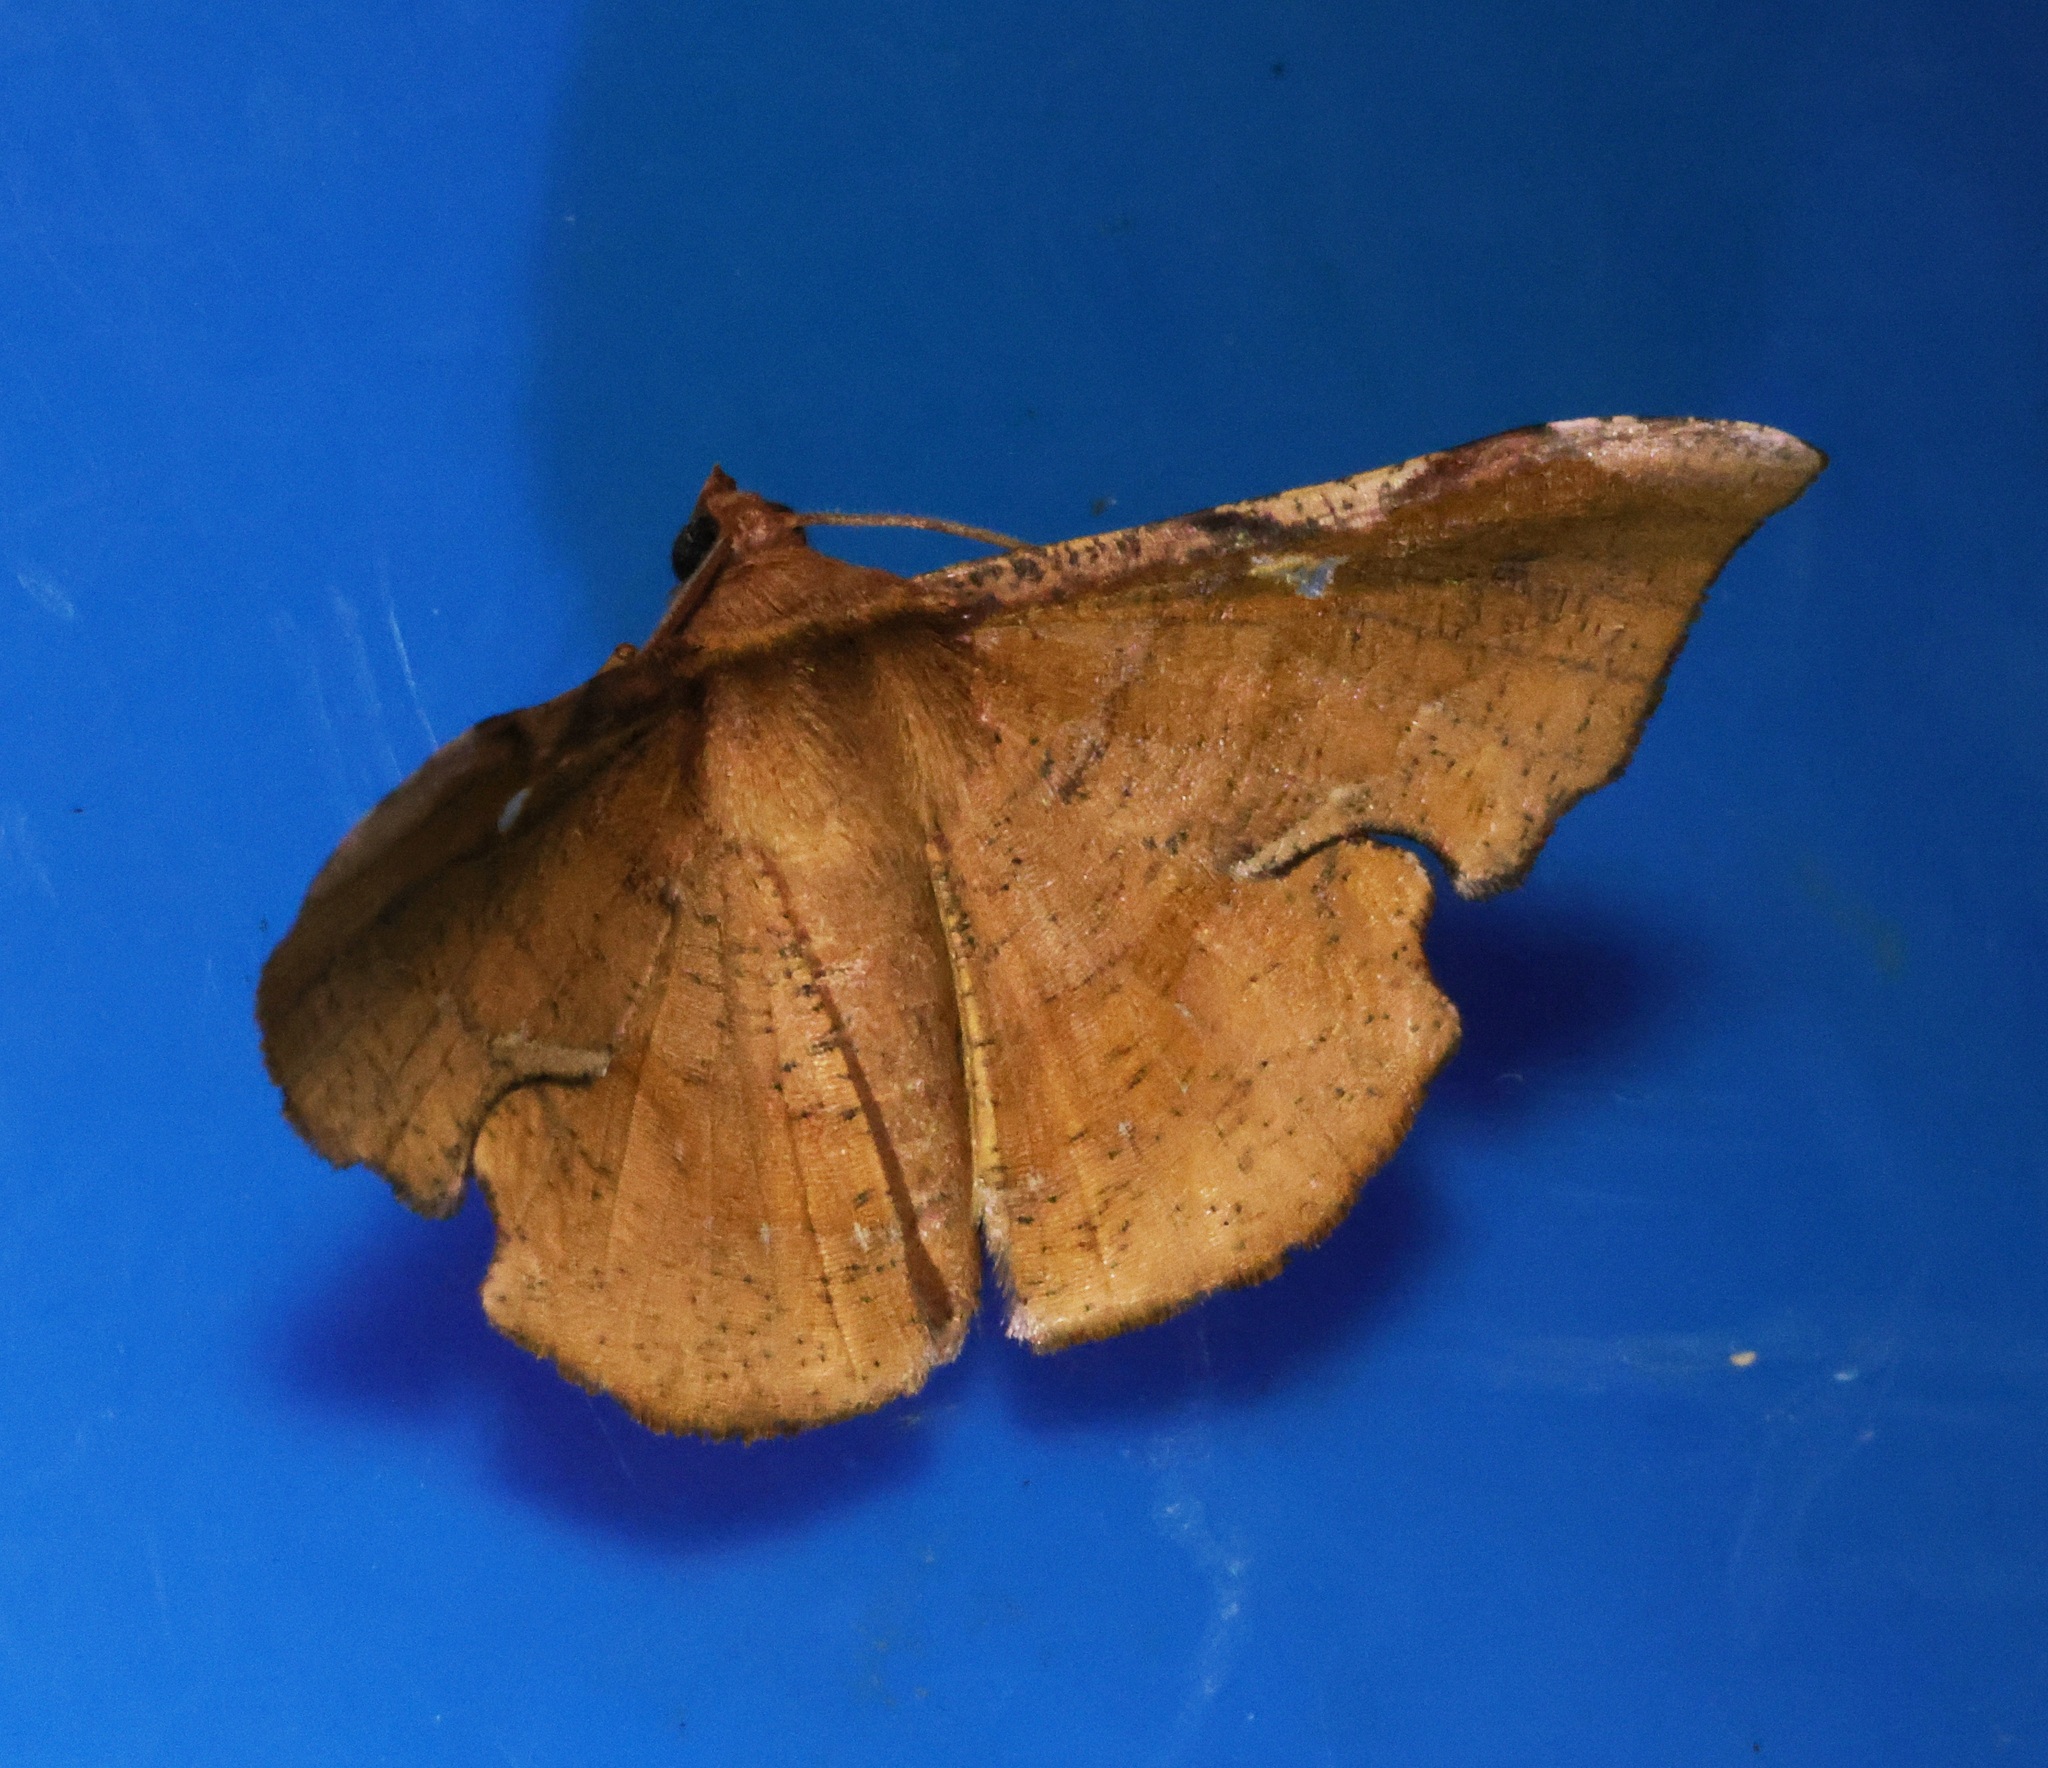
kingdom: Animalia
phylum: Arthropoda
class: Insecta
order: Lepidoptera
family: Geometridae
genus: Fascellina
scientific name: Fascellina chromataria
